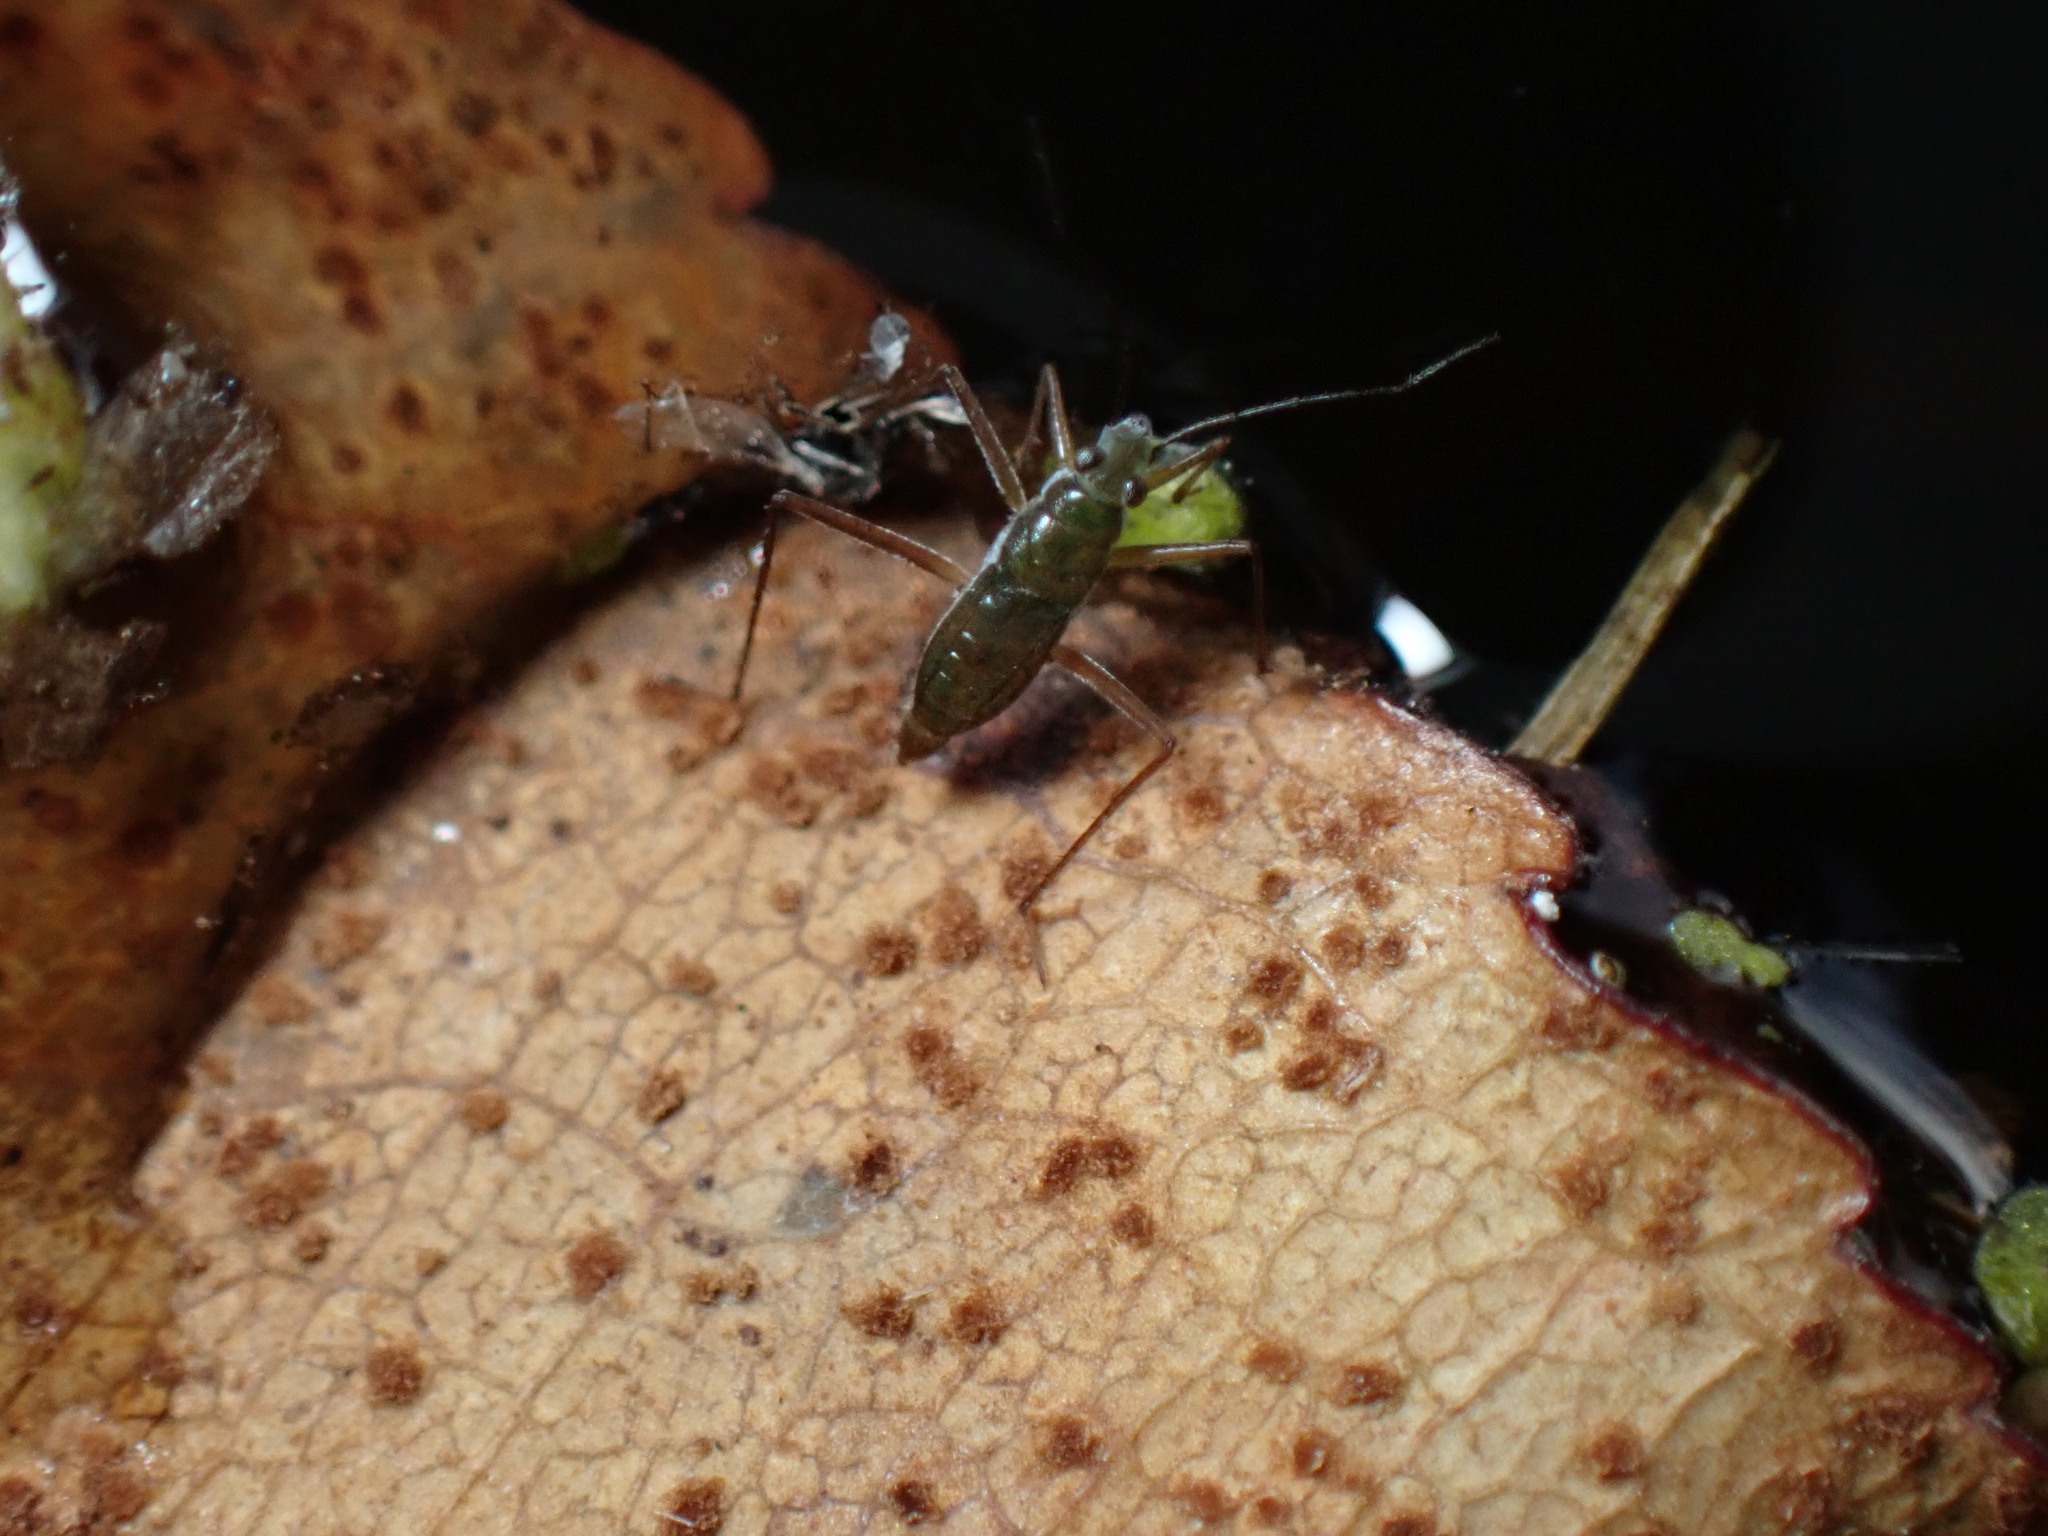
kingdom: Animalia
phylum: Arthropoda
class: Insecta
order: Hemiptera
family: Mesoveliidae
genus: Mesovelia
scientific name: Mesovelia mulsanti
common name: Water treaders
